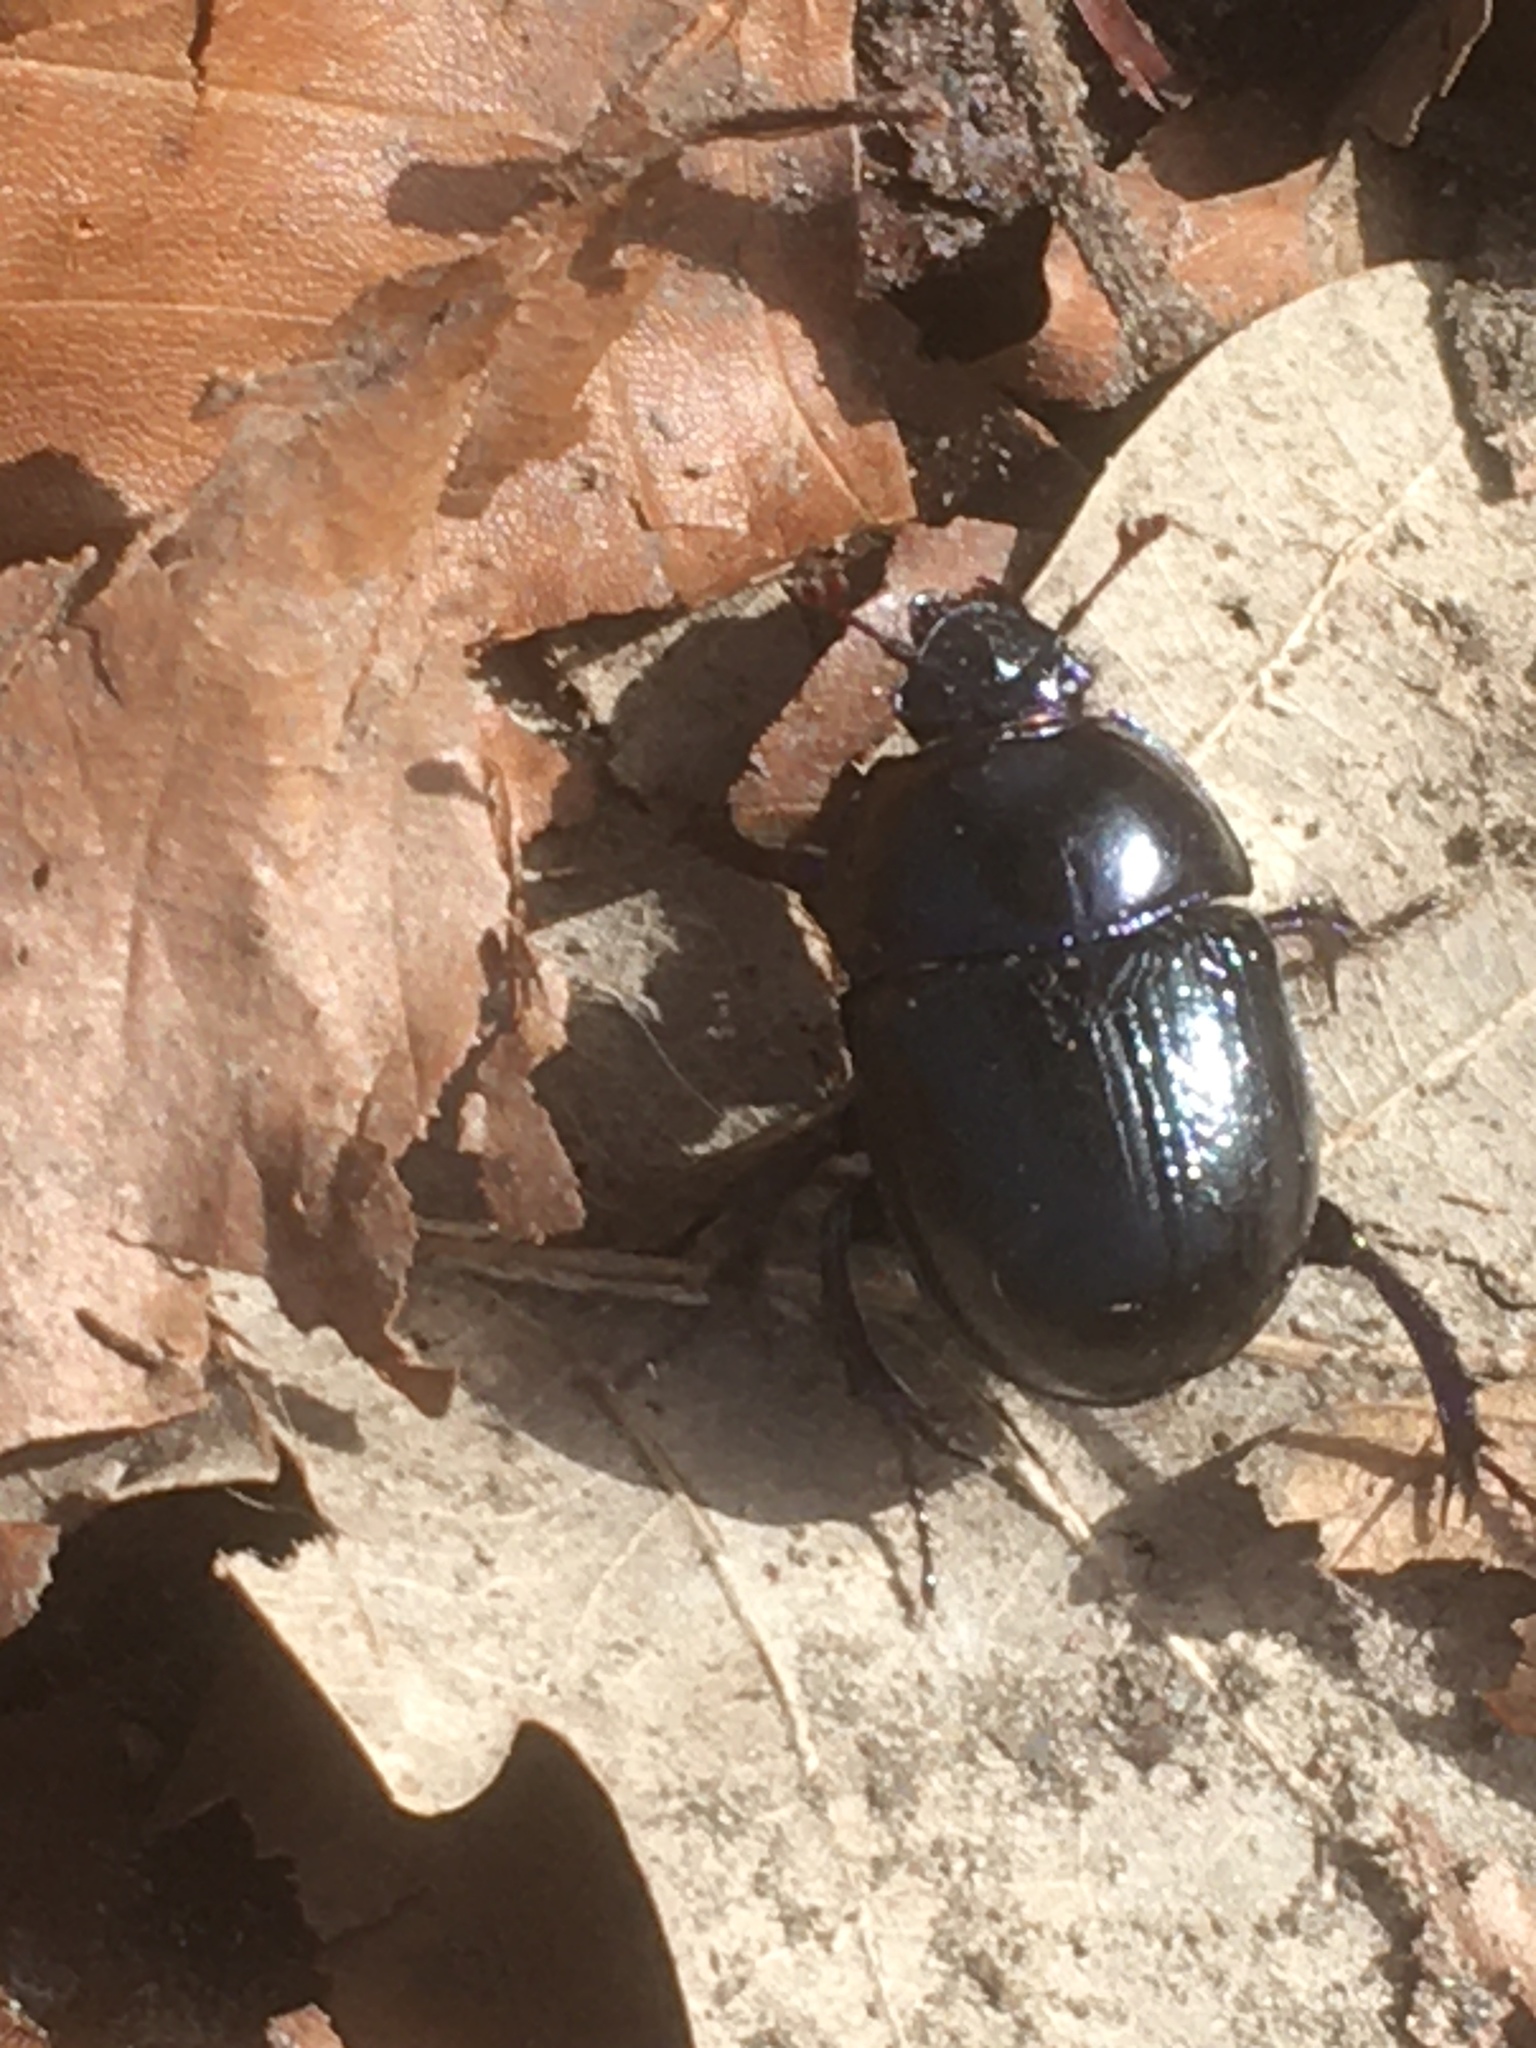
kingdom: Animalia
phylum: Arthropoda
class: Insecta
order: Coleoptera
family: Geotrupidae
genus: Anoplotrupes
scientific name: Anoplotrupes stercorosus
